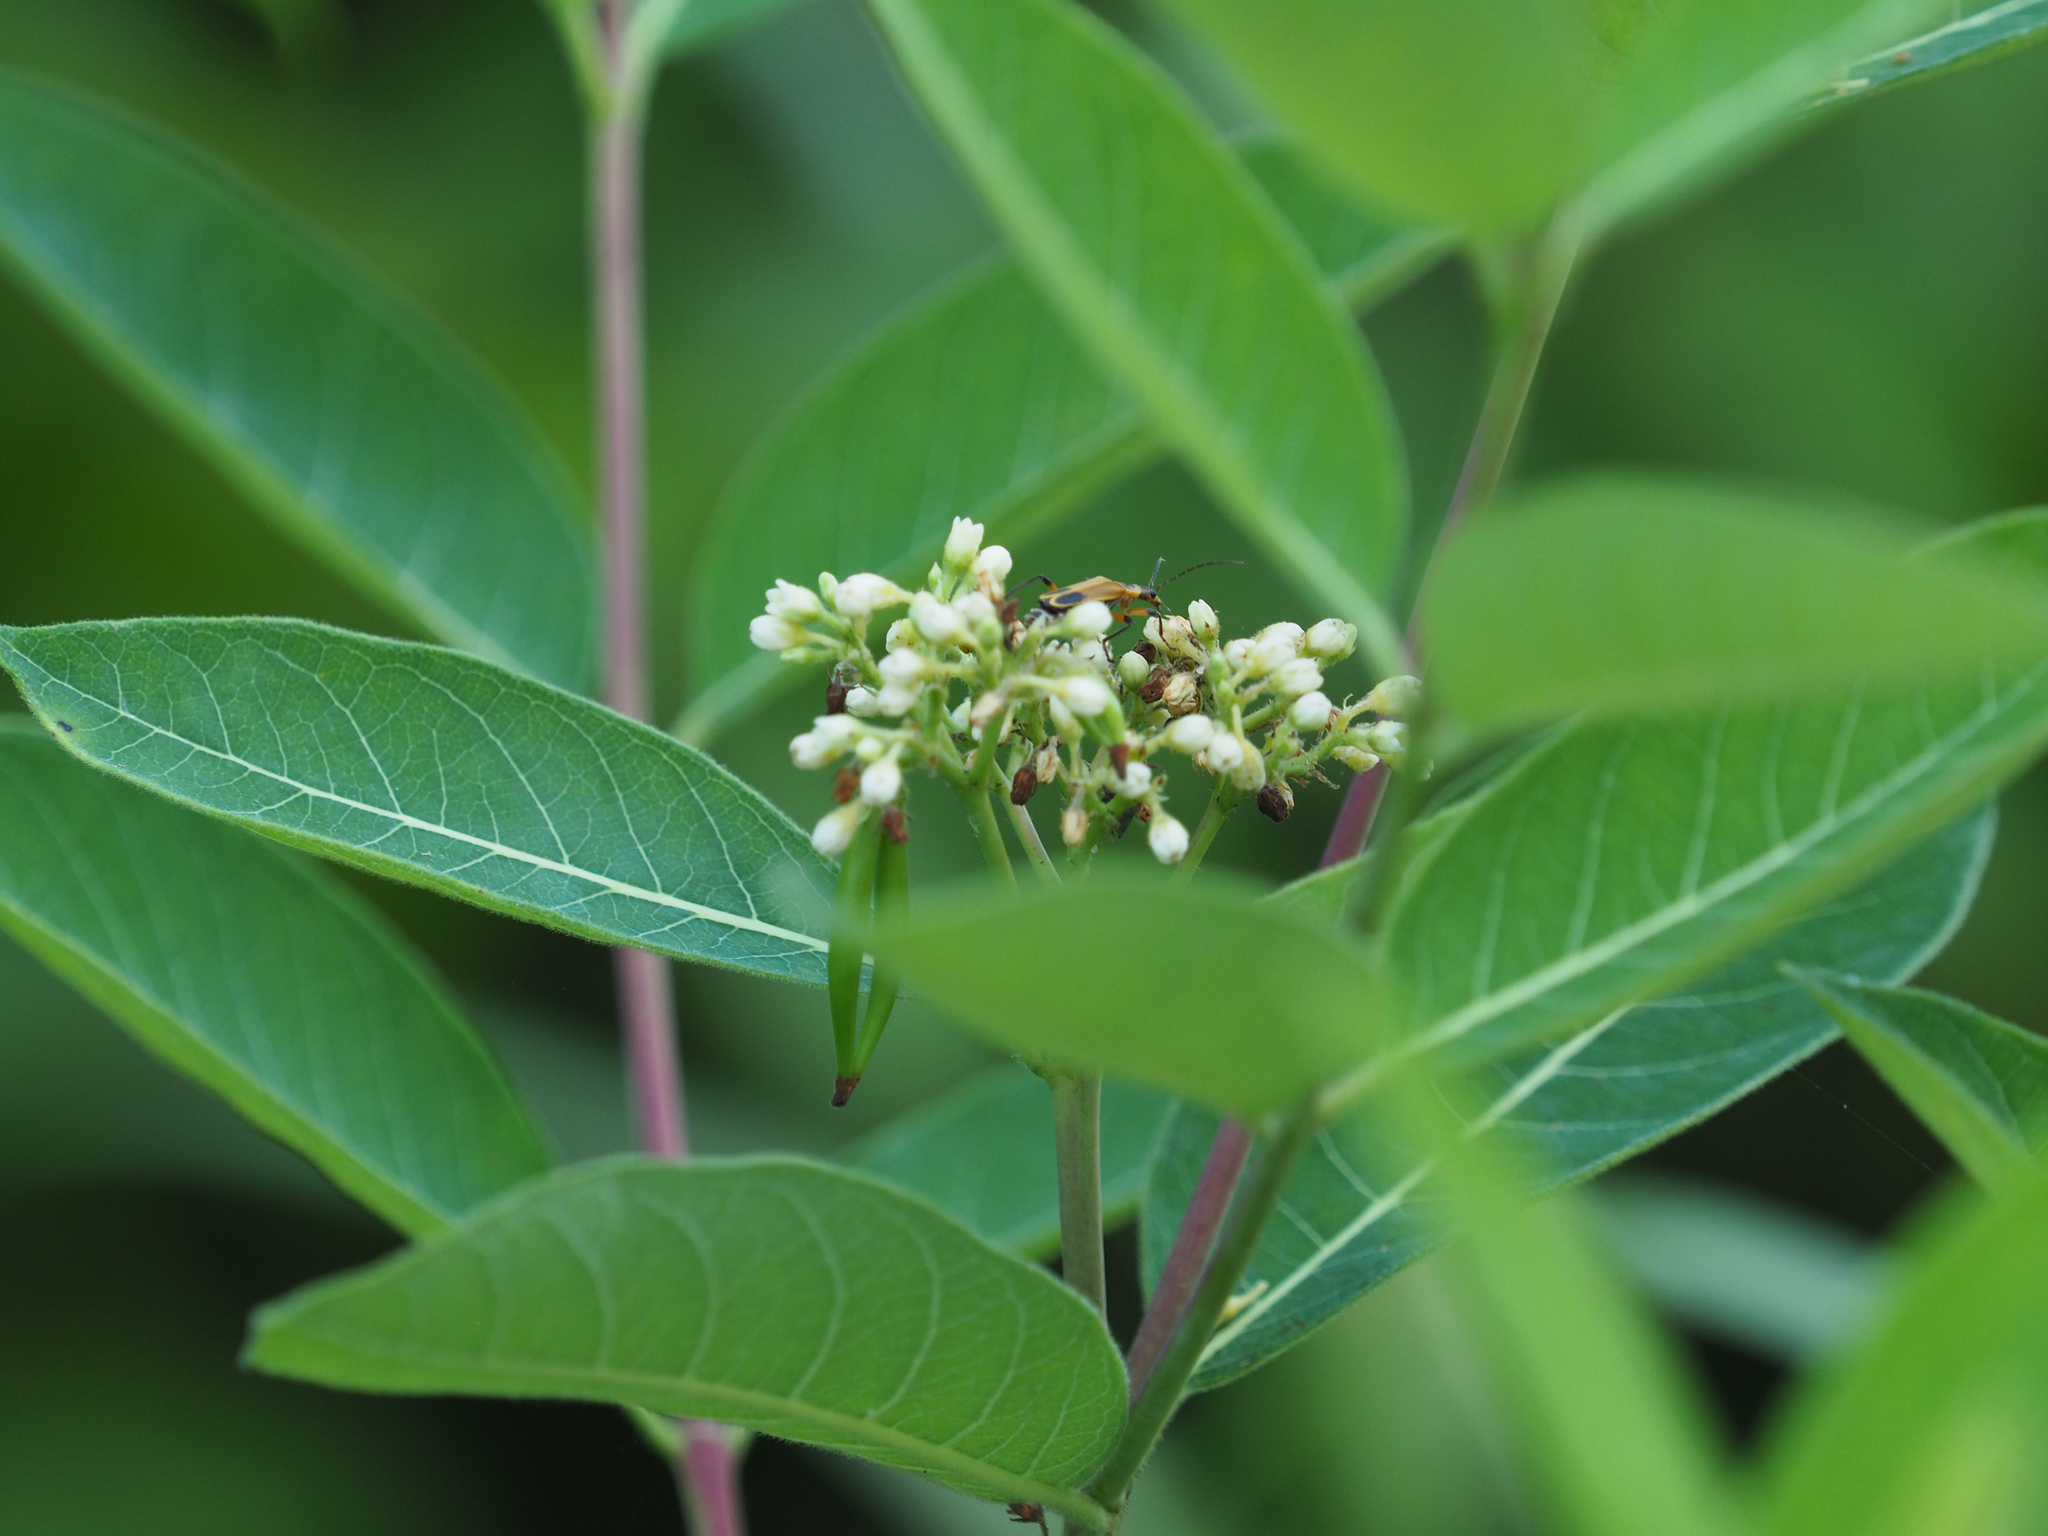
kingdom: Plantae
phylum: Tracheophyta
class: Magnoliopsida
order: Gentianales
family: Apocynaceae
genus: Apocynum
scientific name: Apocynum cannabinum
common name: Hemp dogbane
